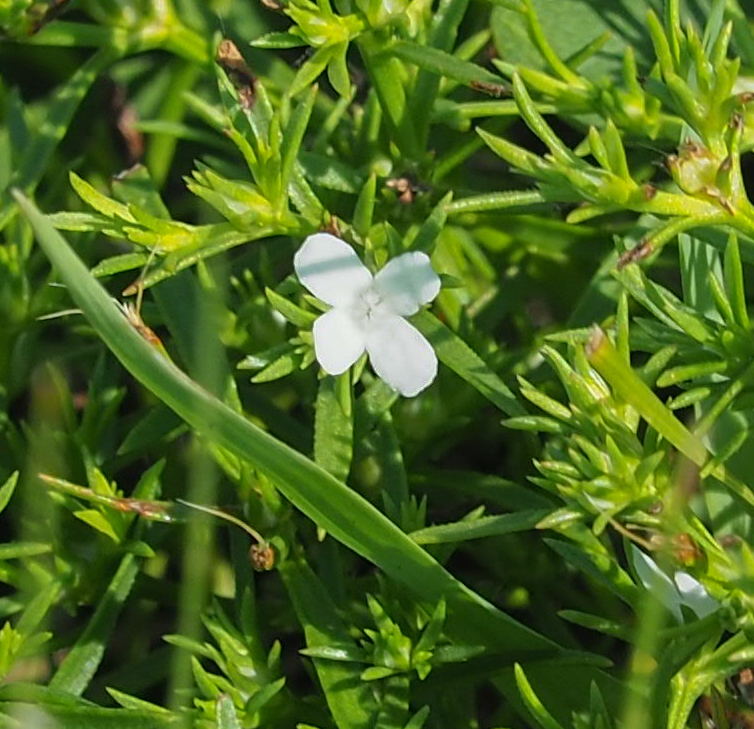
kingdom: Plantae
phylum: Tracheophyta
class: Magnoliopsida
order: Lamiales
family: Tetrachondraceae
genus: Polypremum
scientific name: Polypremum procumbens
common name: Juniper-leaf
